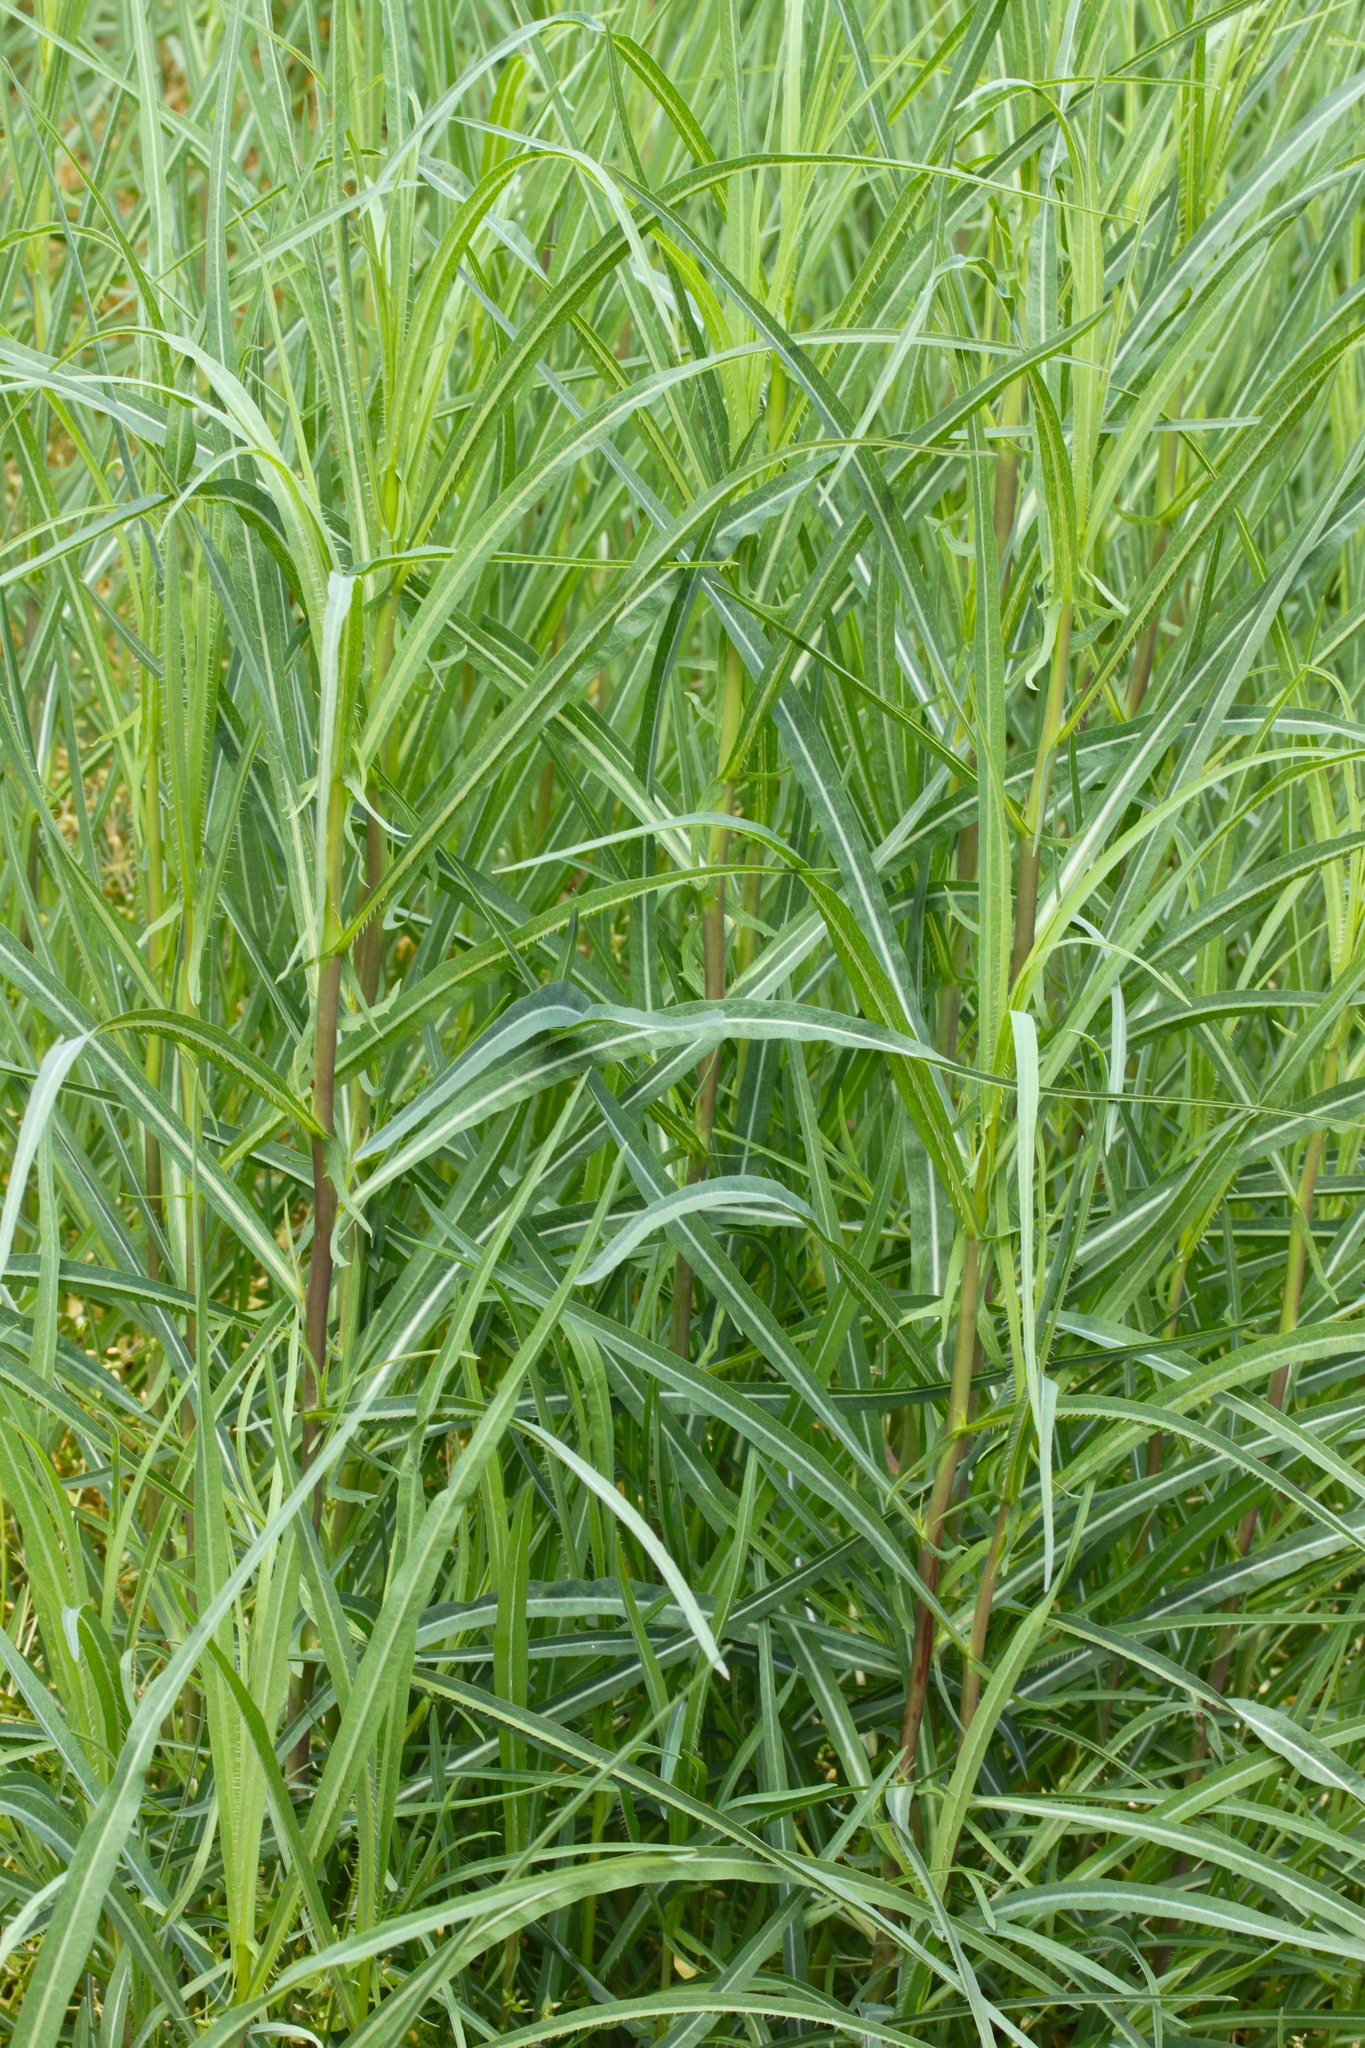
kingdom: Plantae
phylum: Tracheophyta
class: Magnoliopsida
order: Asterales
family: Asteraceae
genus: Lactuca
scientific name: Lactuca serriola
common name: Prickly lettuce
